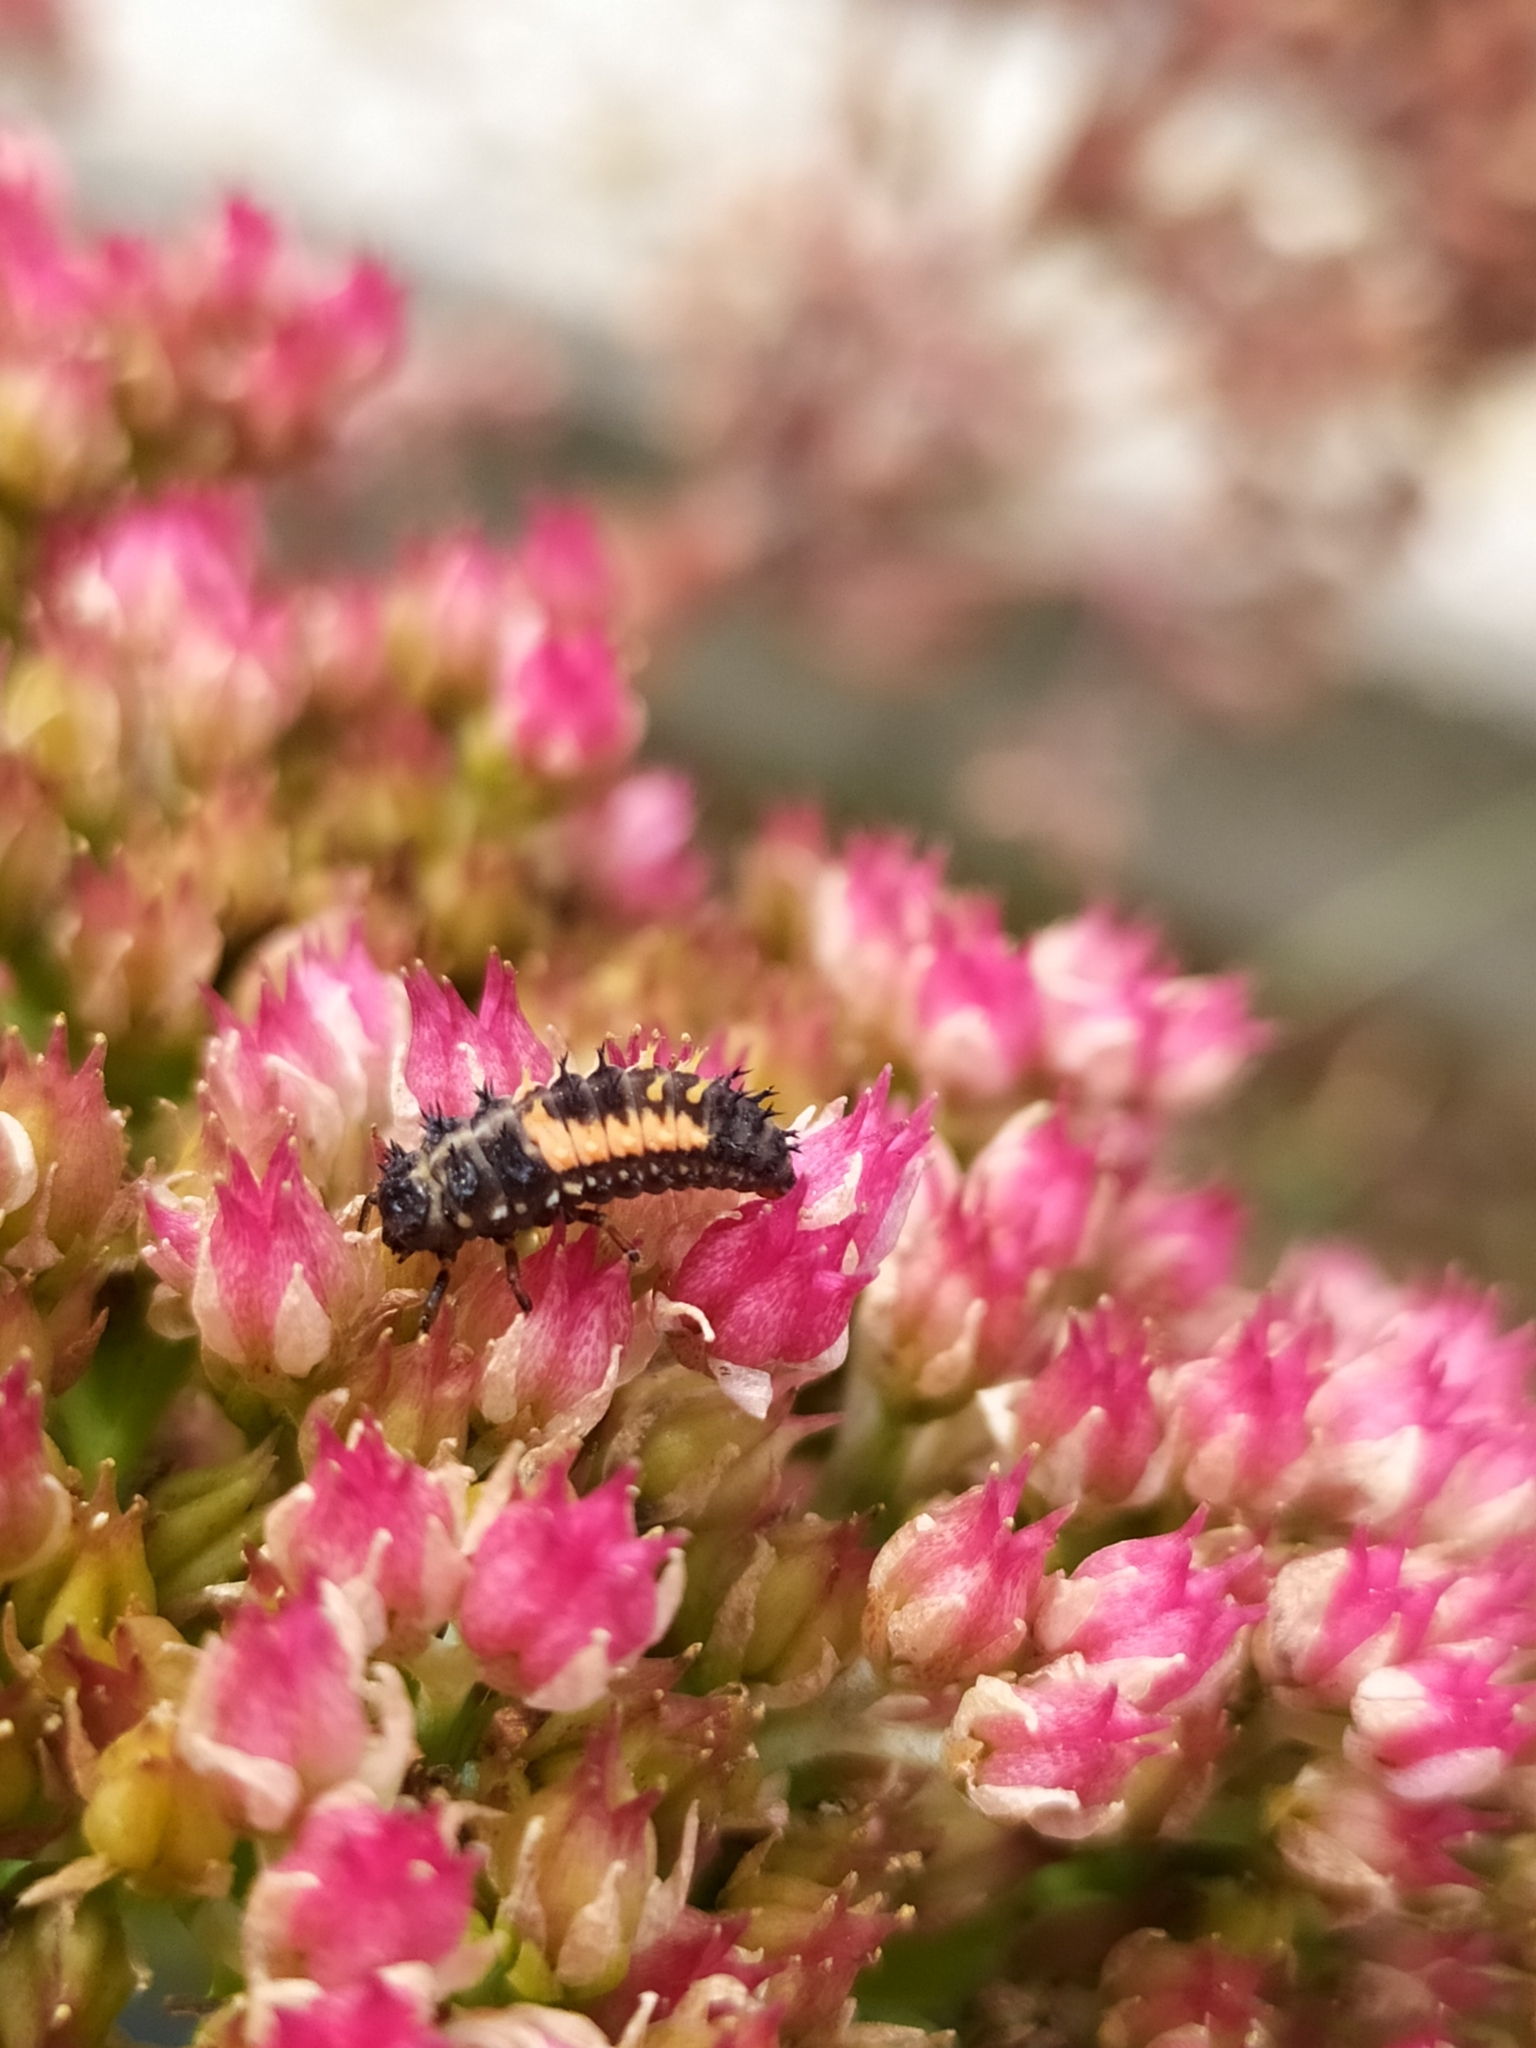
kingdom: Animalia
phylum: Arthropoda
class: Insecta
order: Coleoptera
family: Coccinellidae
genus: Harmonia
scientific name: Harmonia axyridis
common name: Harlequin ladybird
